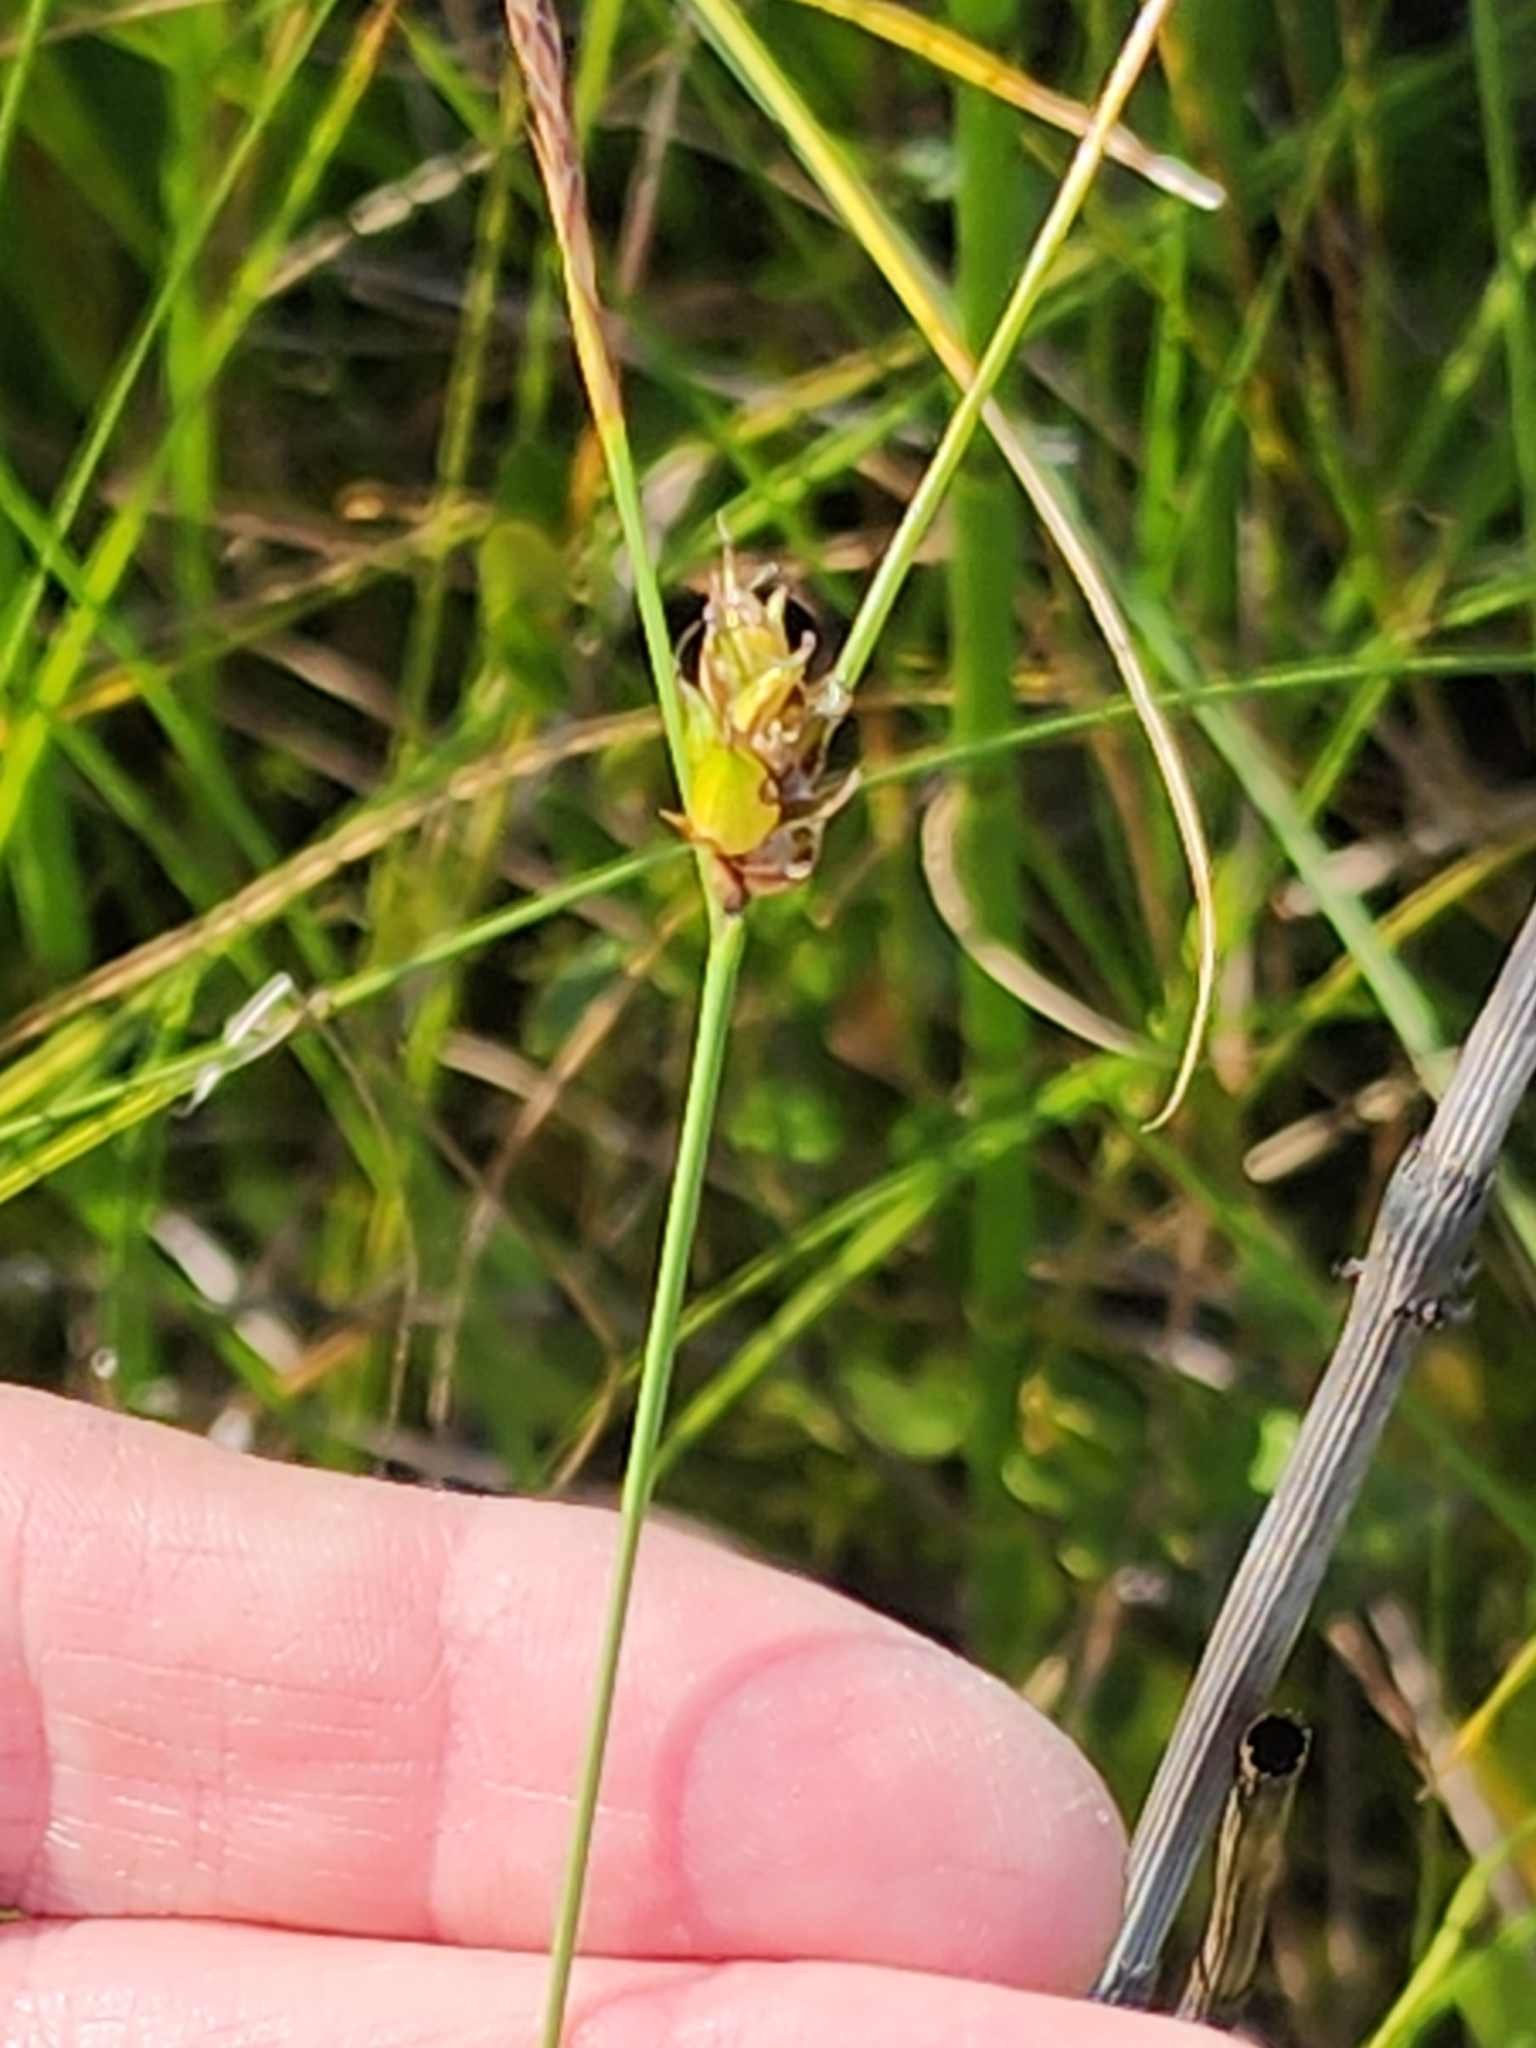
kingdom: Plantae
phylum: Tracheophyta
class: Liliopsida
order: Poales
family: Cyperaceae
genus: Carex
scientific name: Carex oligosperma
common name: Few-seed sedge
